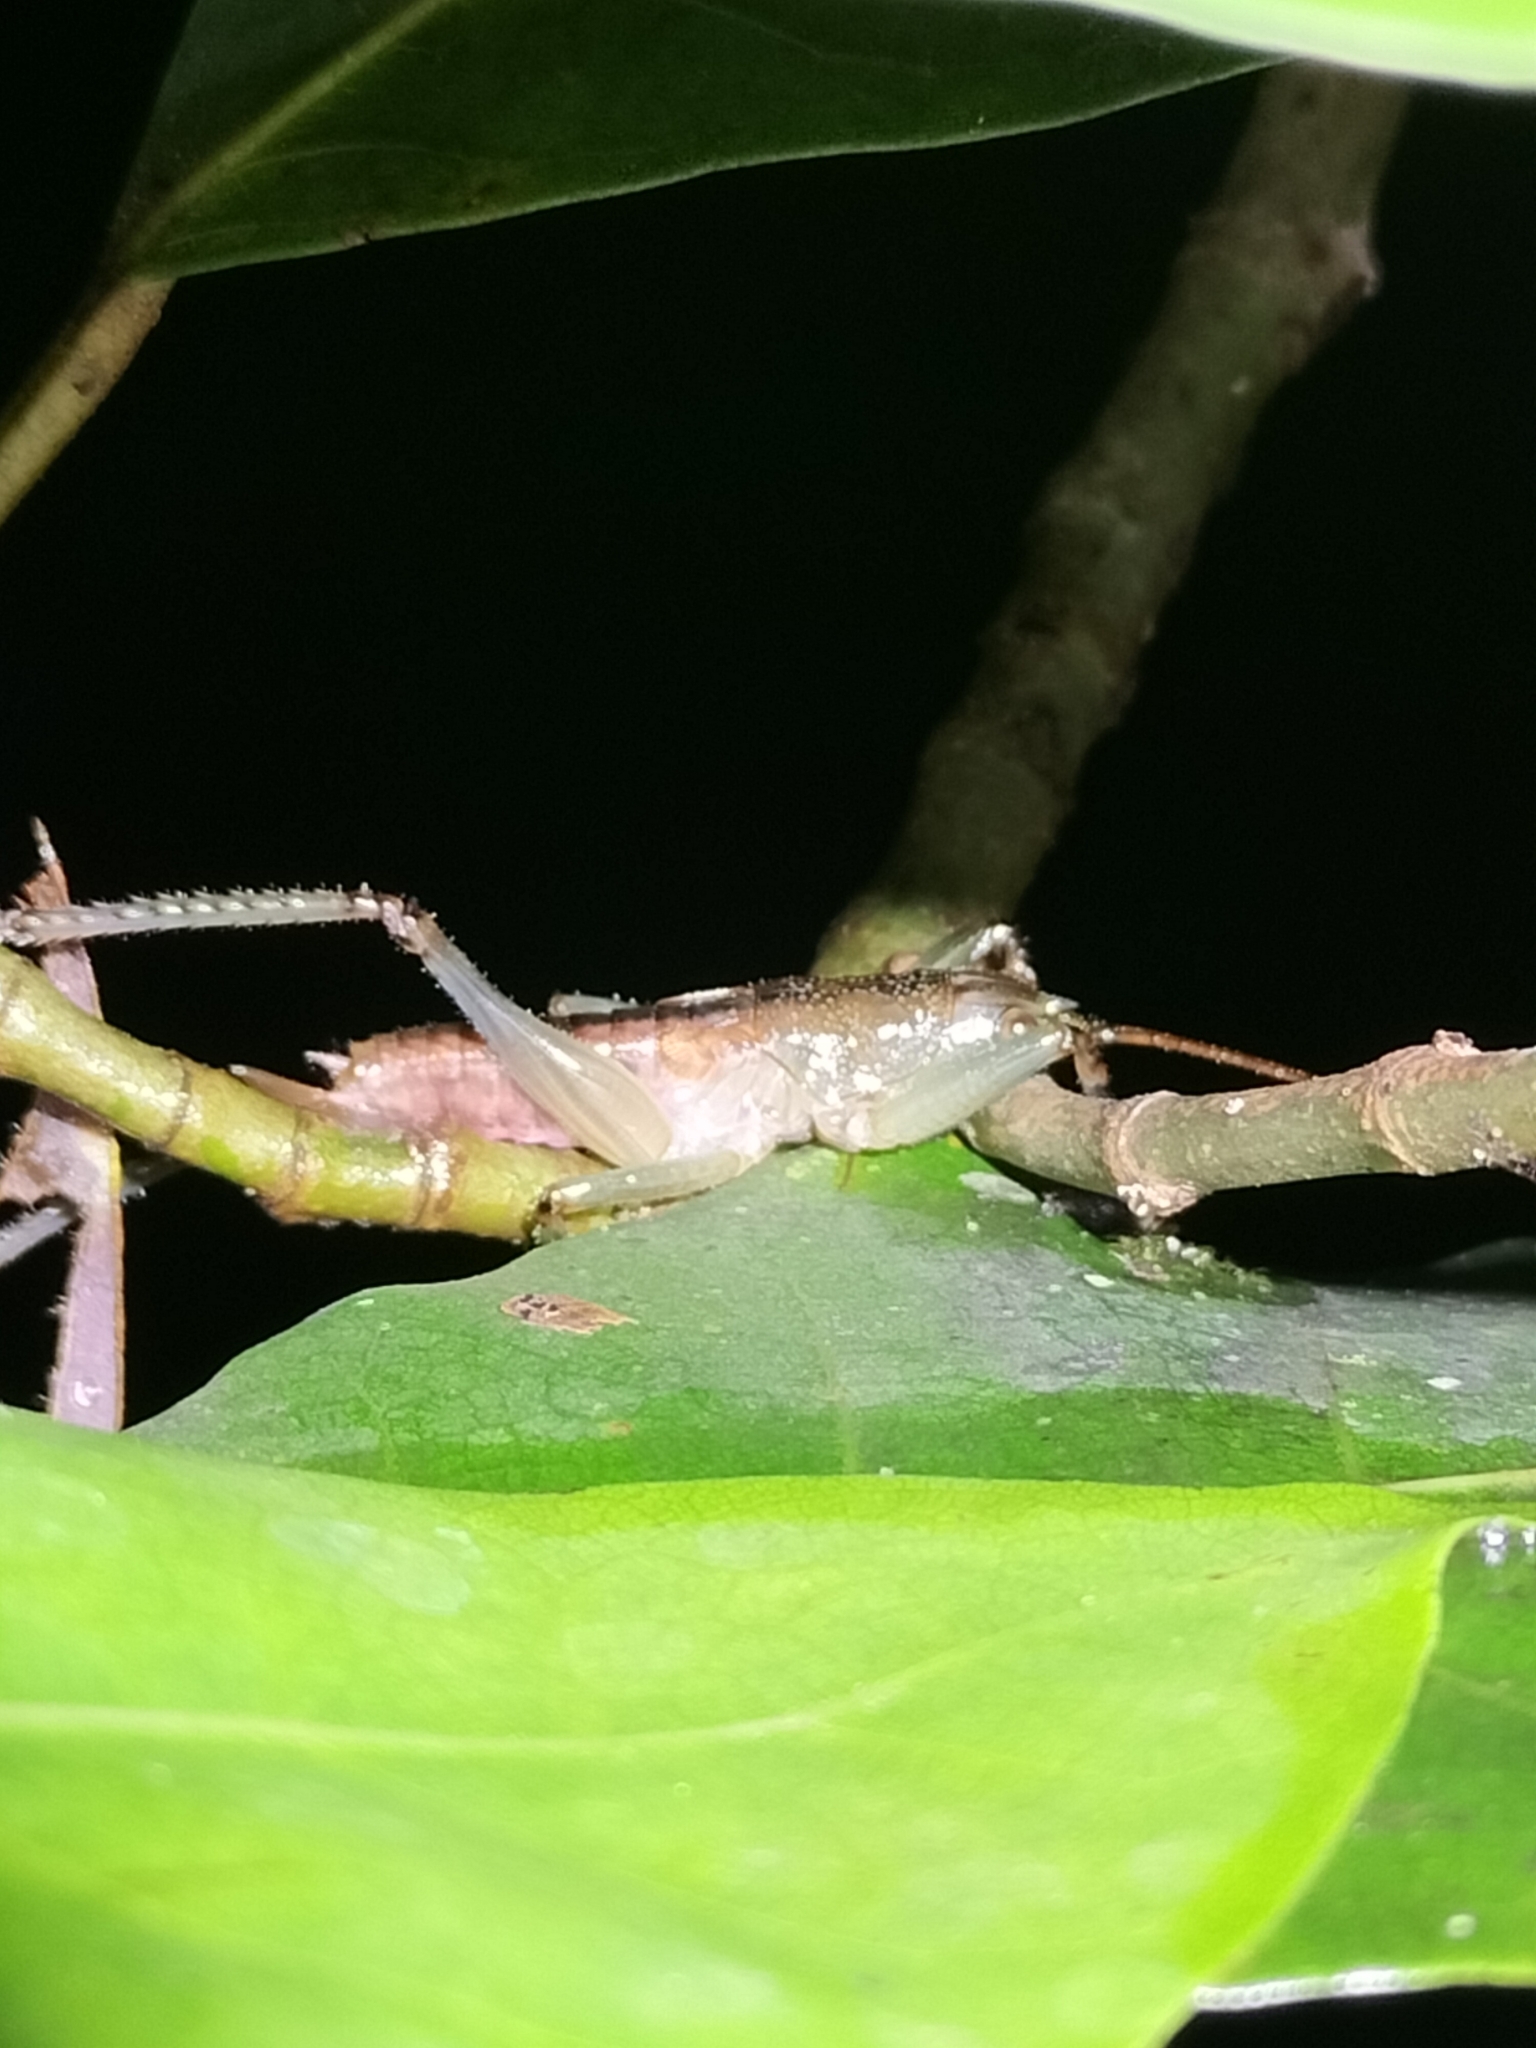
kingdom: Animalia
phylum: Arthropoda
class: Insecta
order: Orthoptera
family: Tettigoniidae
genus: Barbaragraecia
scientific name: Barbaragraecia unicorn
